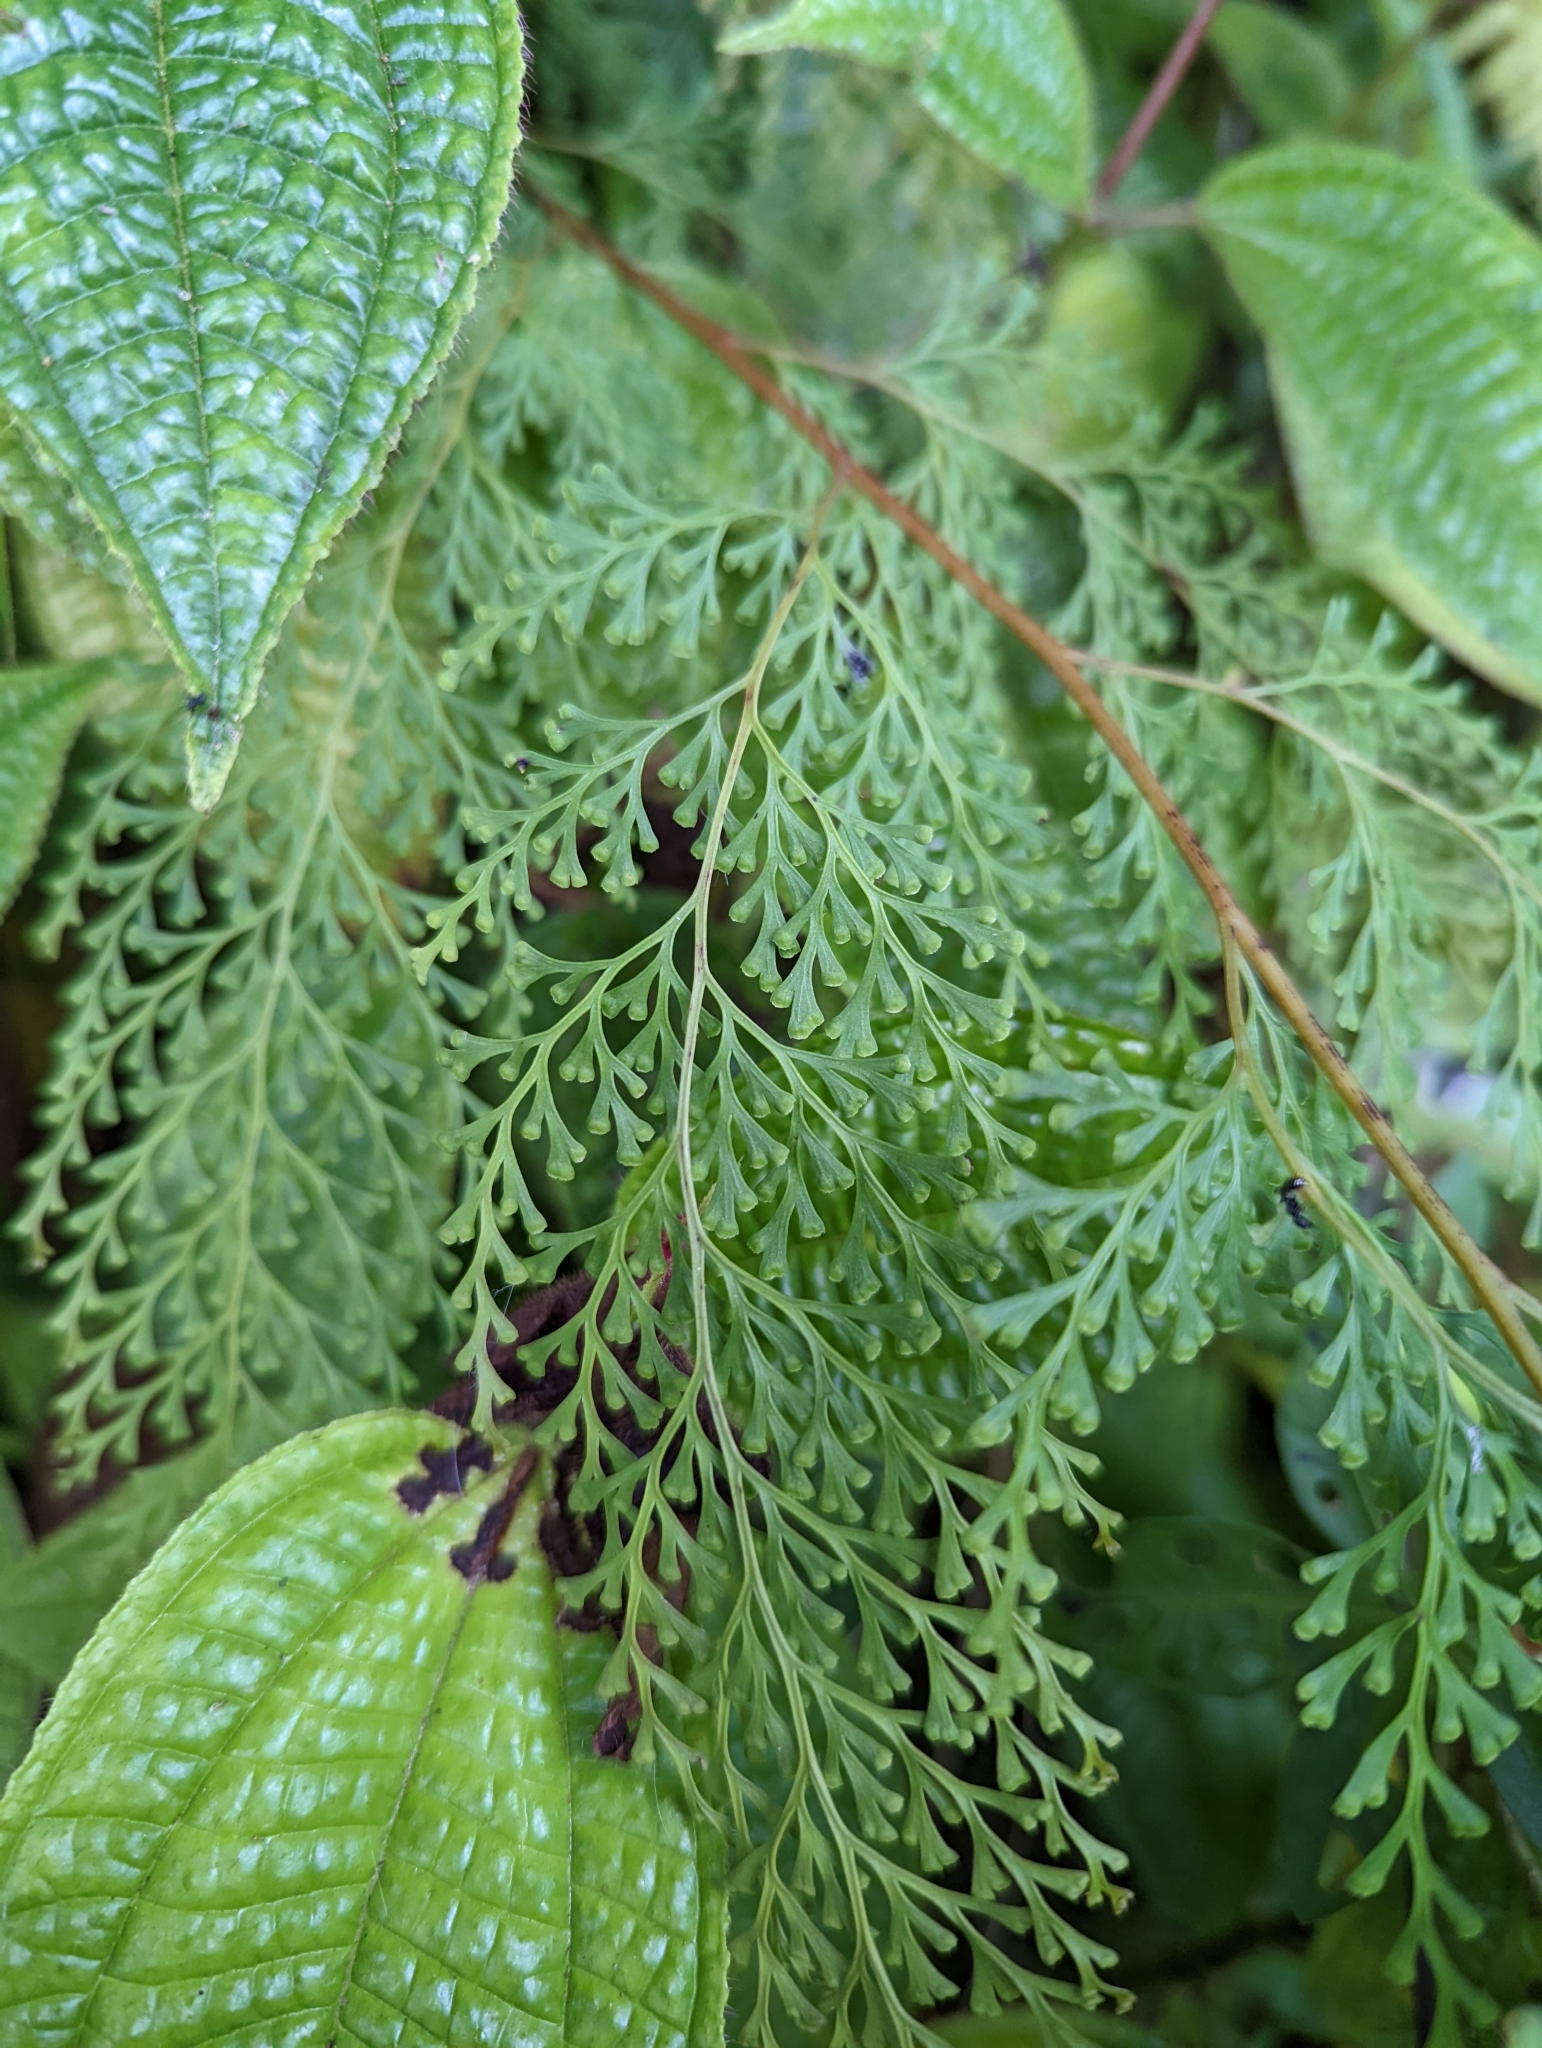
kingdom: Plantae
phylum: Tracheophyta
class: Polypodiopsida
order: Polypodiales
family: Lindsaeaceae
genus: Odontosoria
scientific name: Odontosoria chinensis
